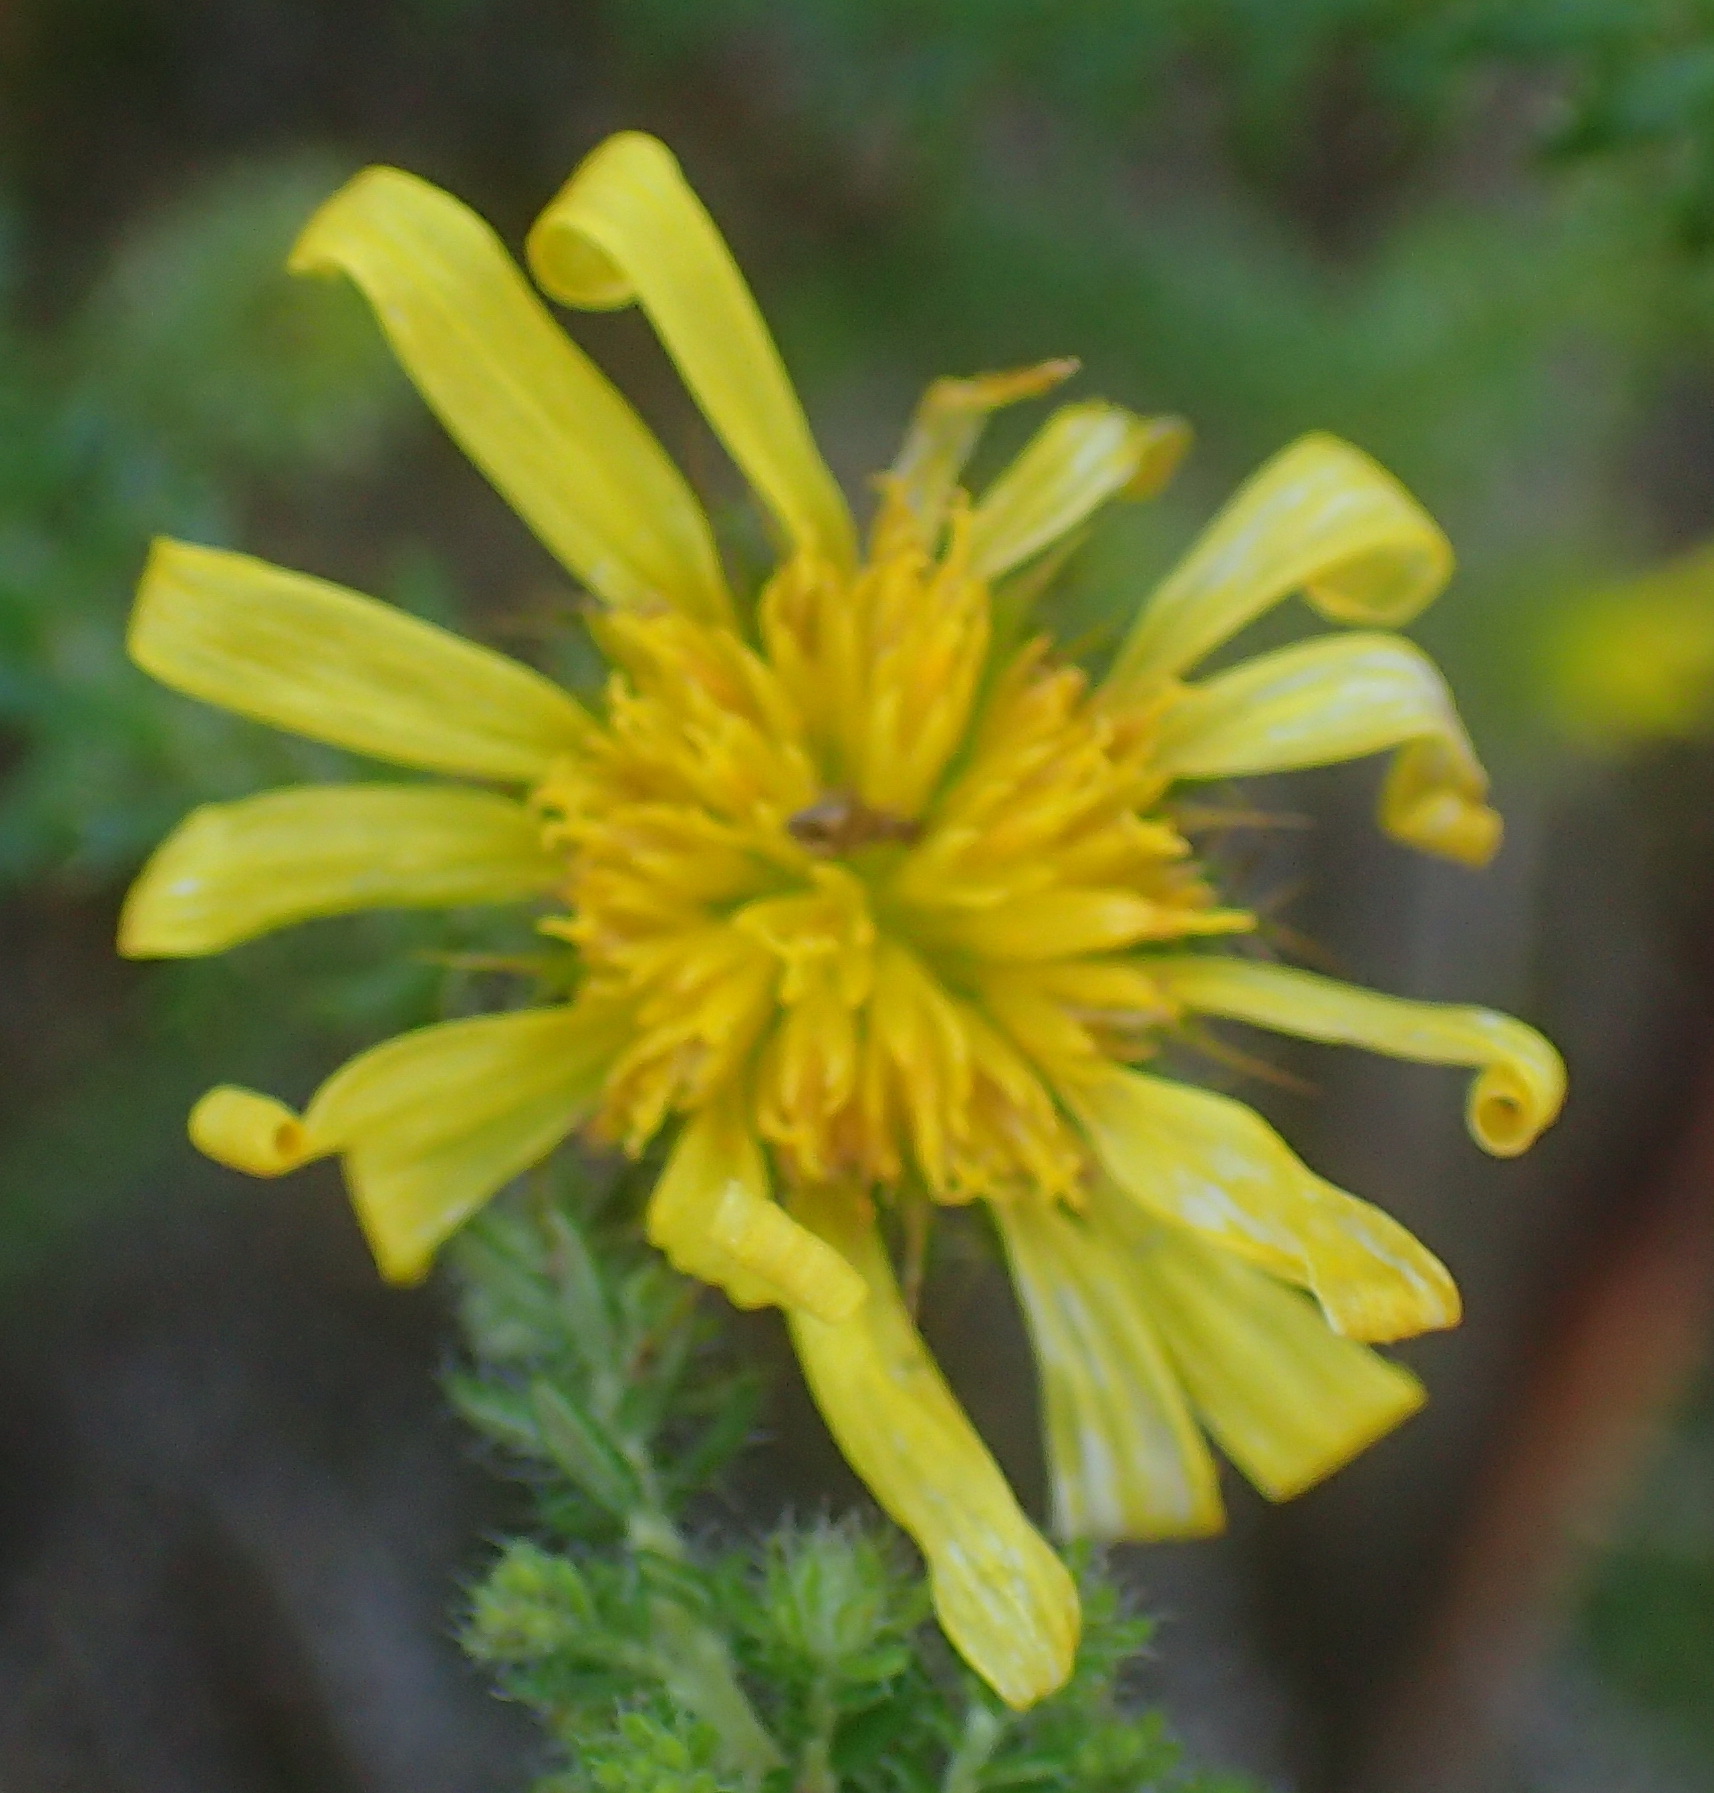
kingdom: Plantae
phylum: Tracheophyta
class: Magnoliopsida
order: Asterales
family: Asteraceae
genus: Cullumia
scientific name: Cullumia decurrens
